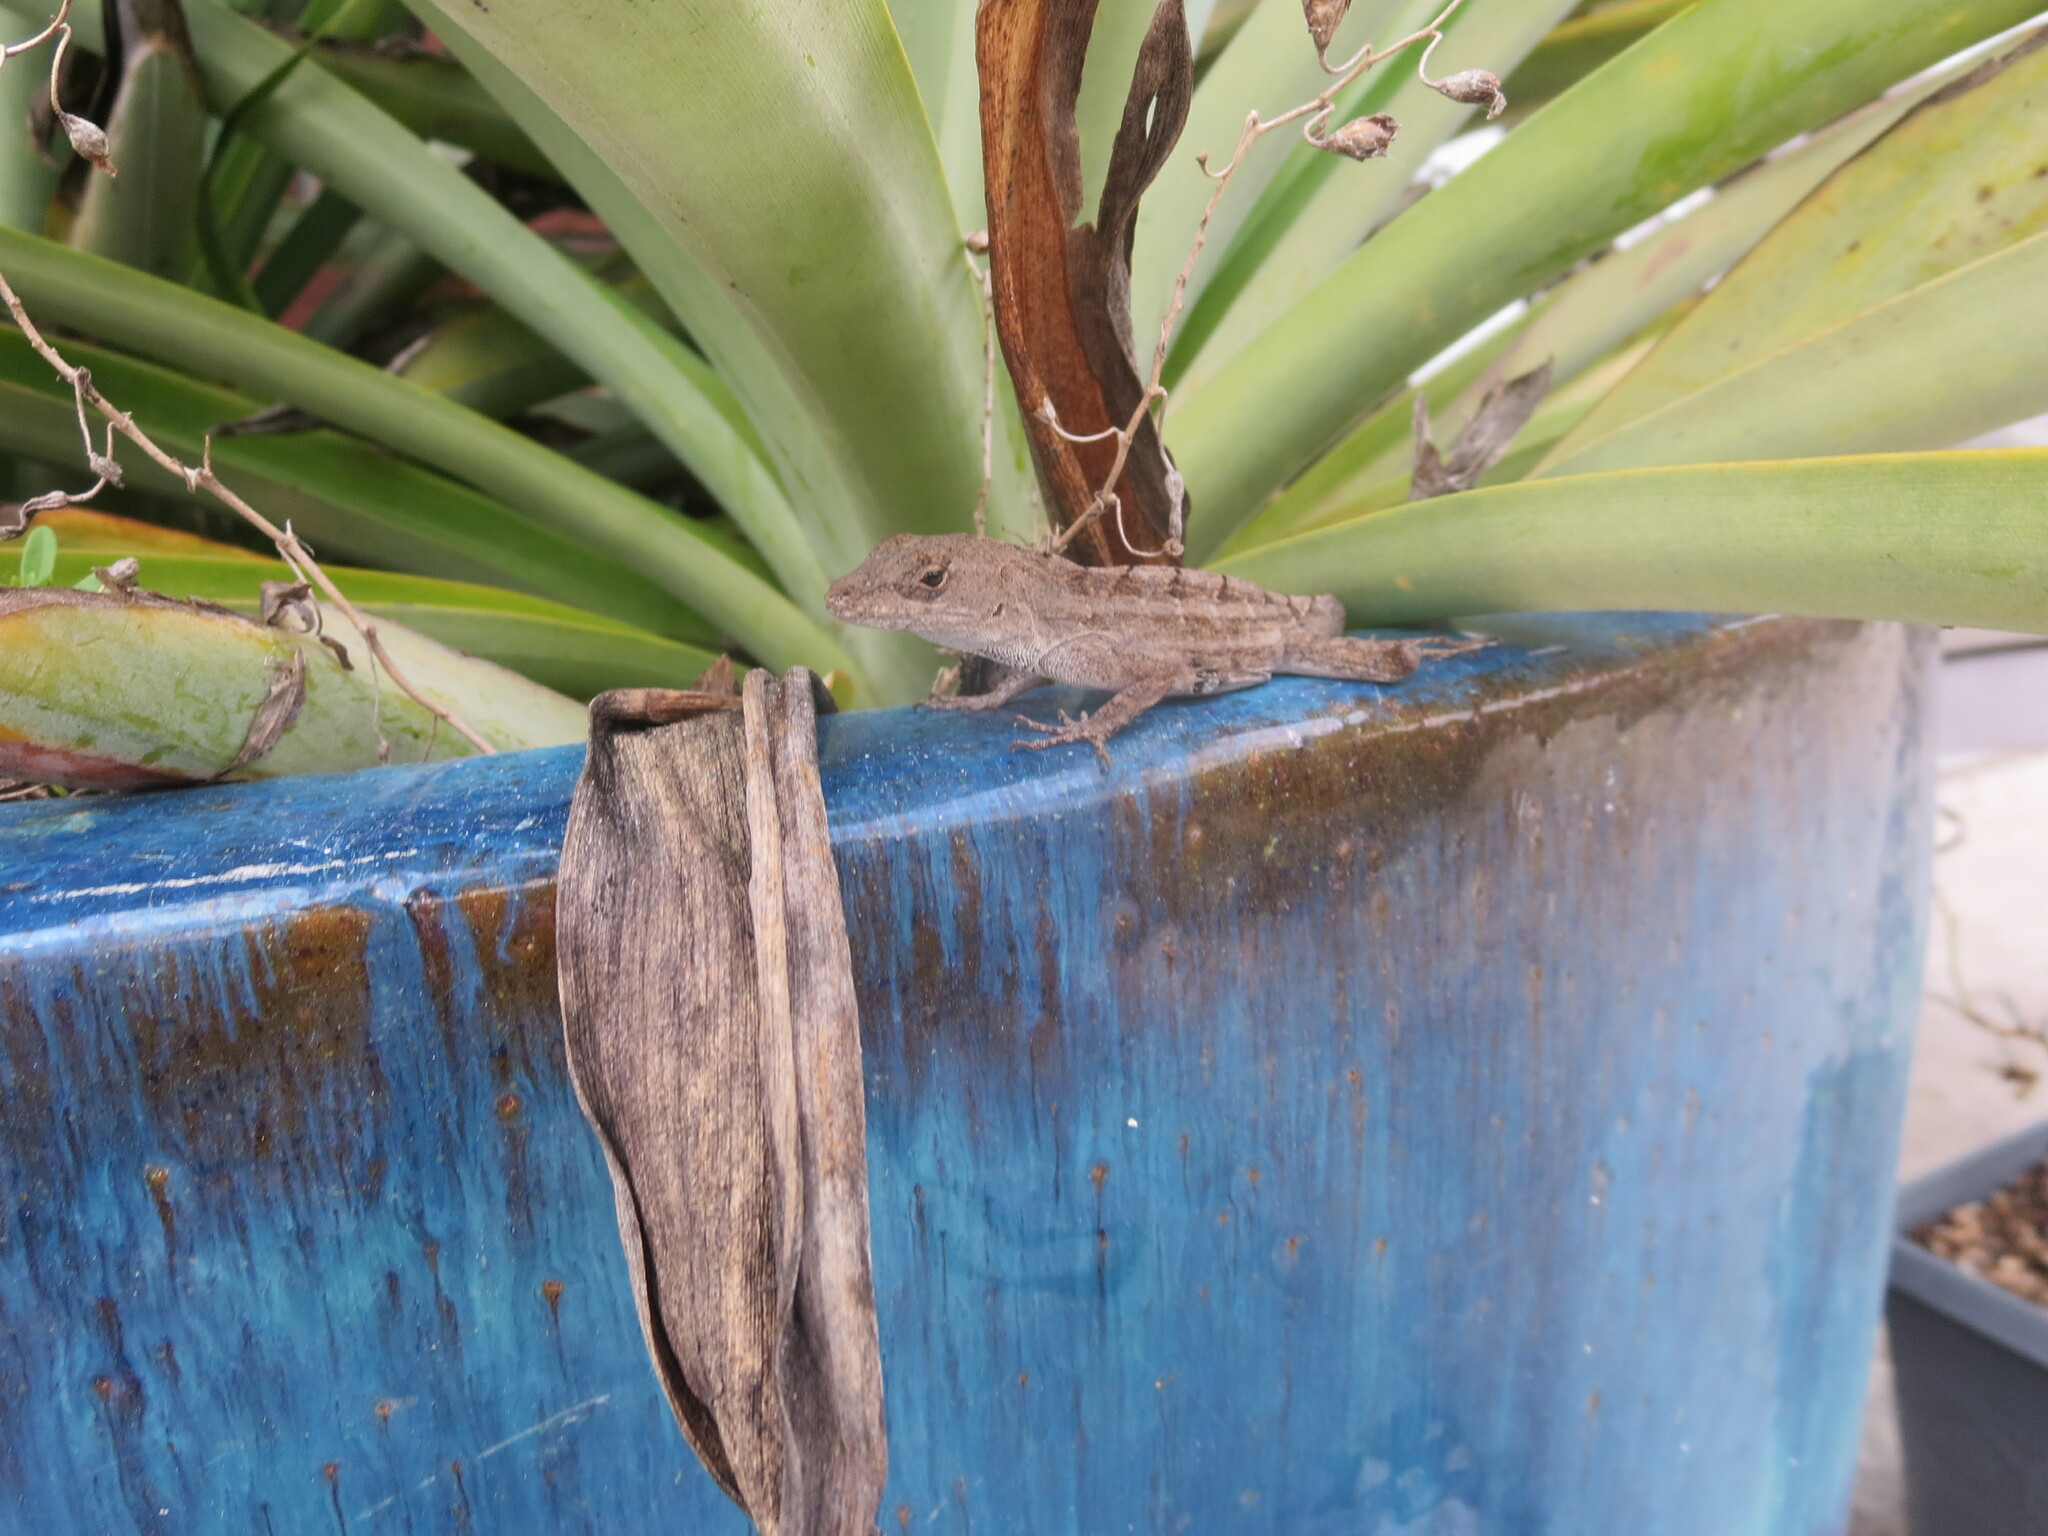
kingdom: Animalia
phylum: Chordata
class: Squamata
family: Dactyloidae
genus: Anolis
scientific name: Anolis sagrei
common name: Brown anole
